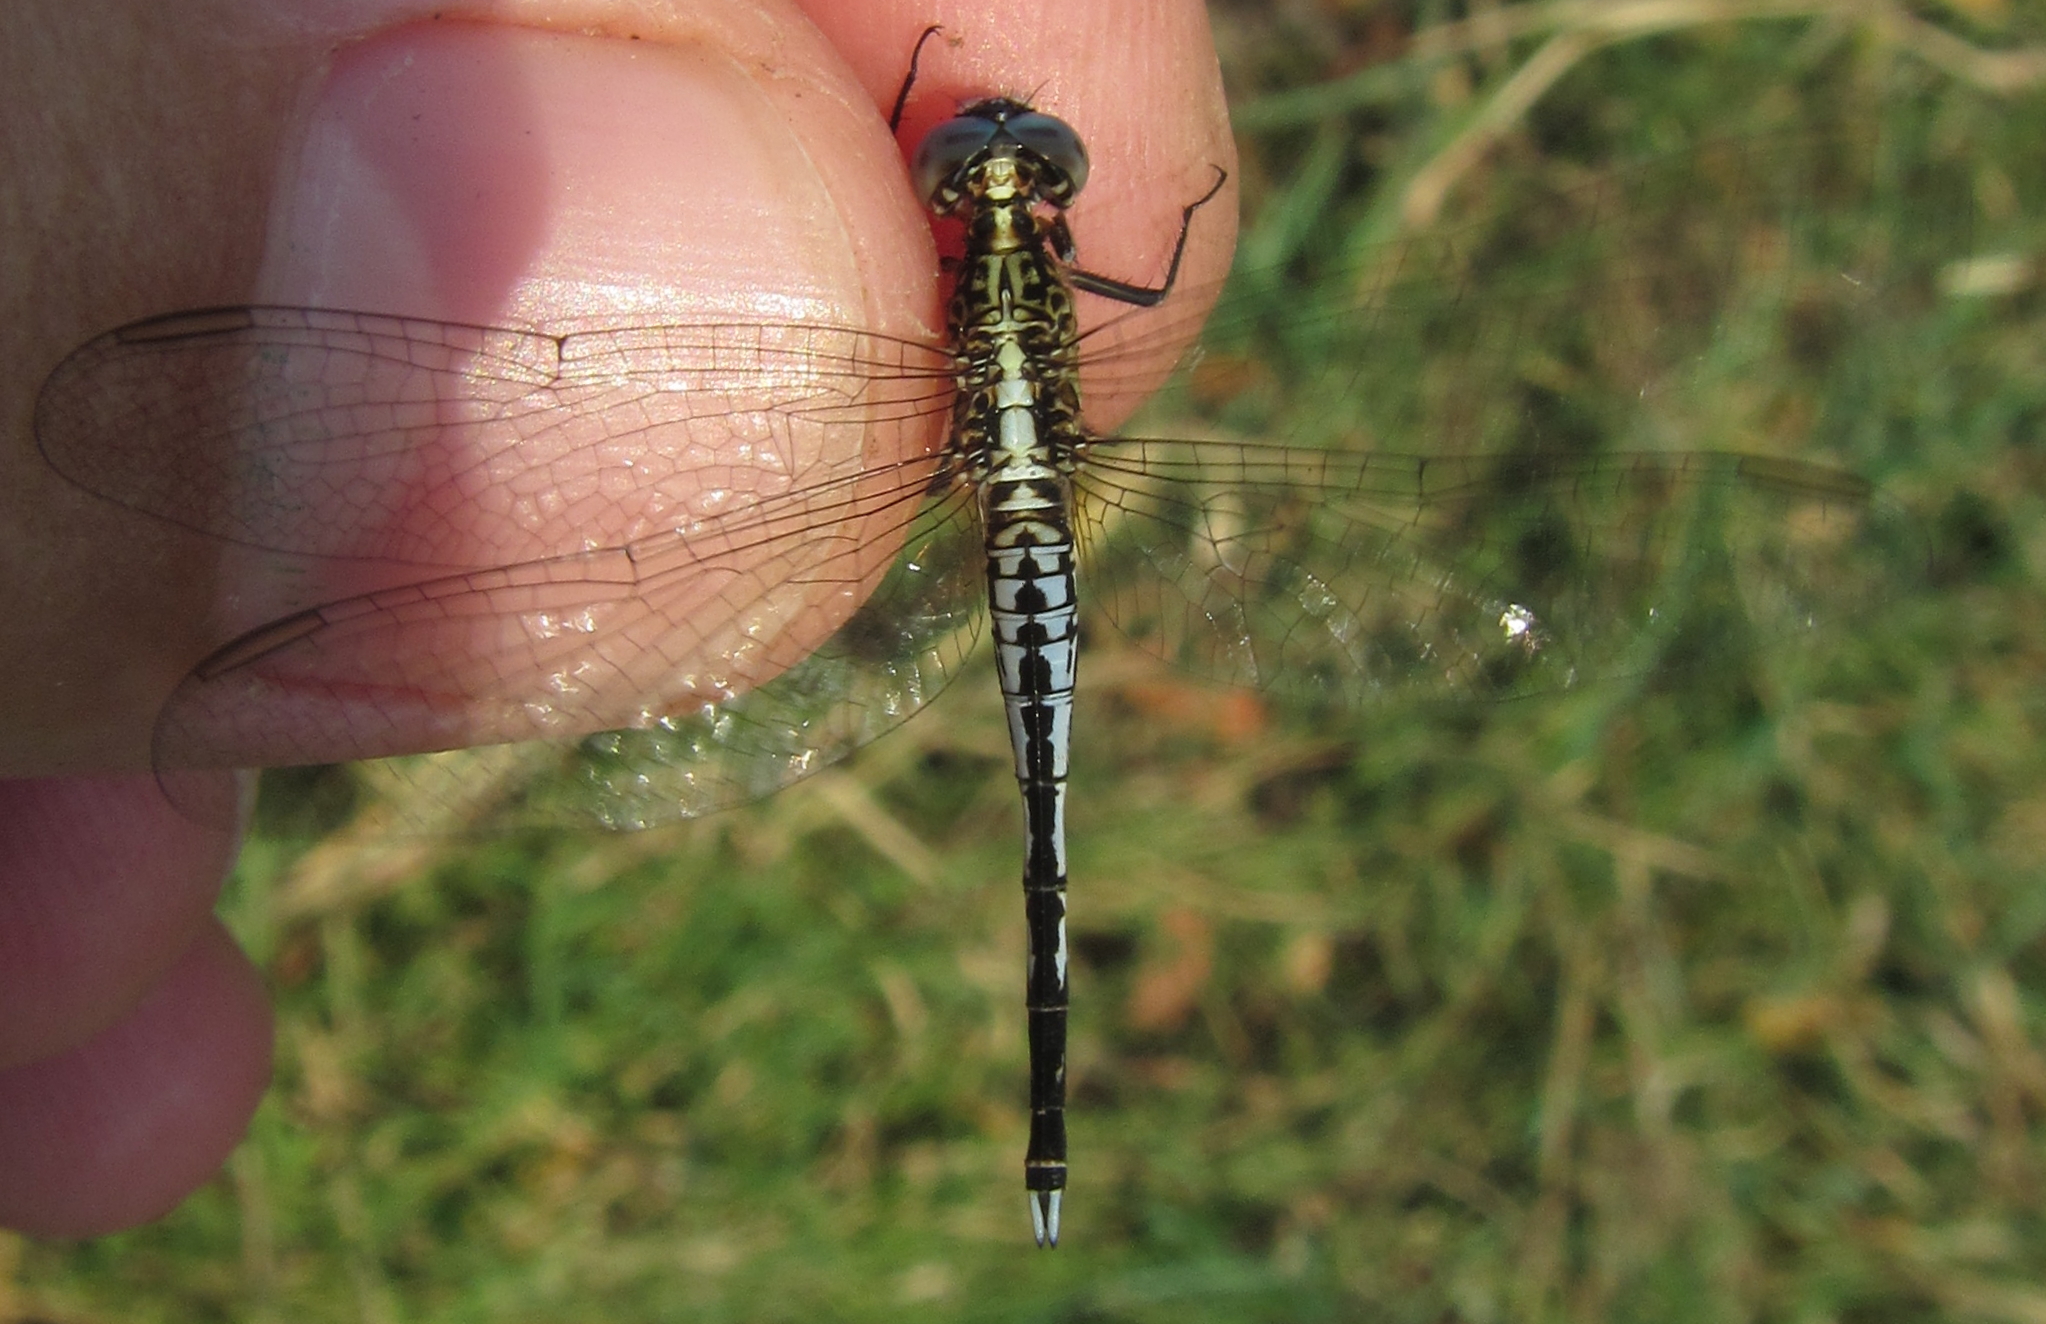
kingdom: Animalia
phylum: Arthropoda
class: Insecta
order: Odonata
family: Libellulidae
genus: Acisoma
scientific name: Acisoma inflatum
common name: Stout pintail
